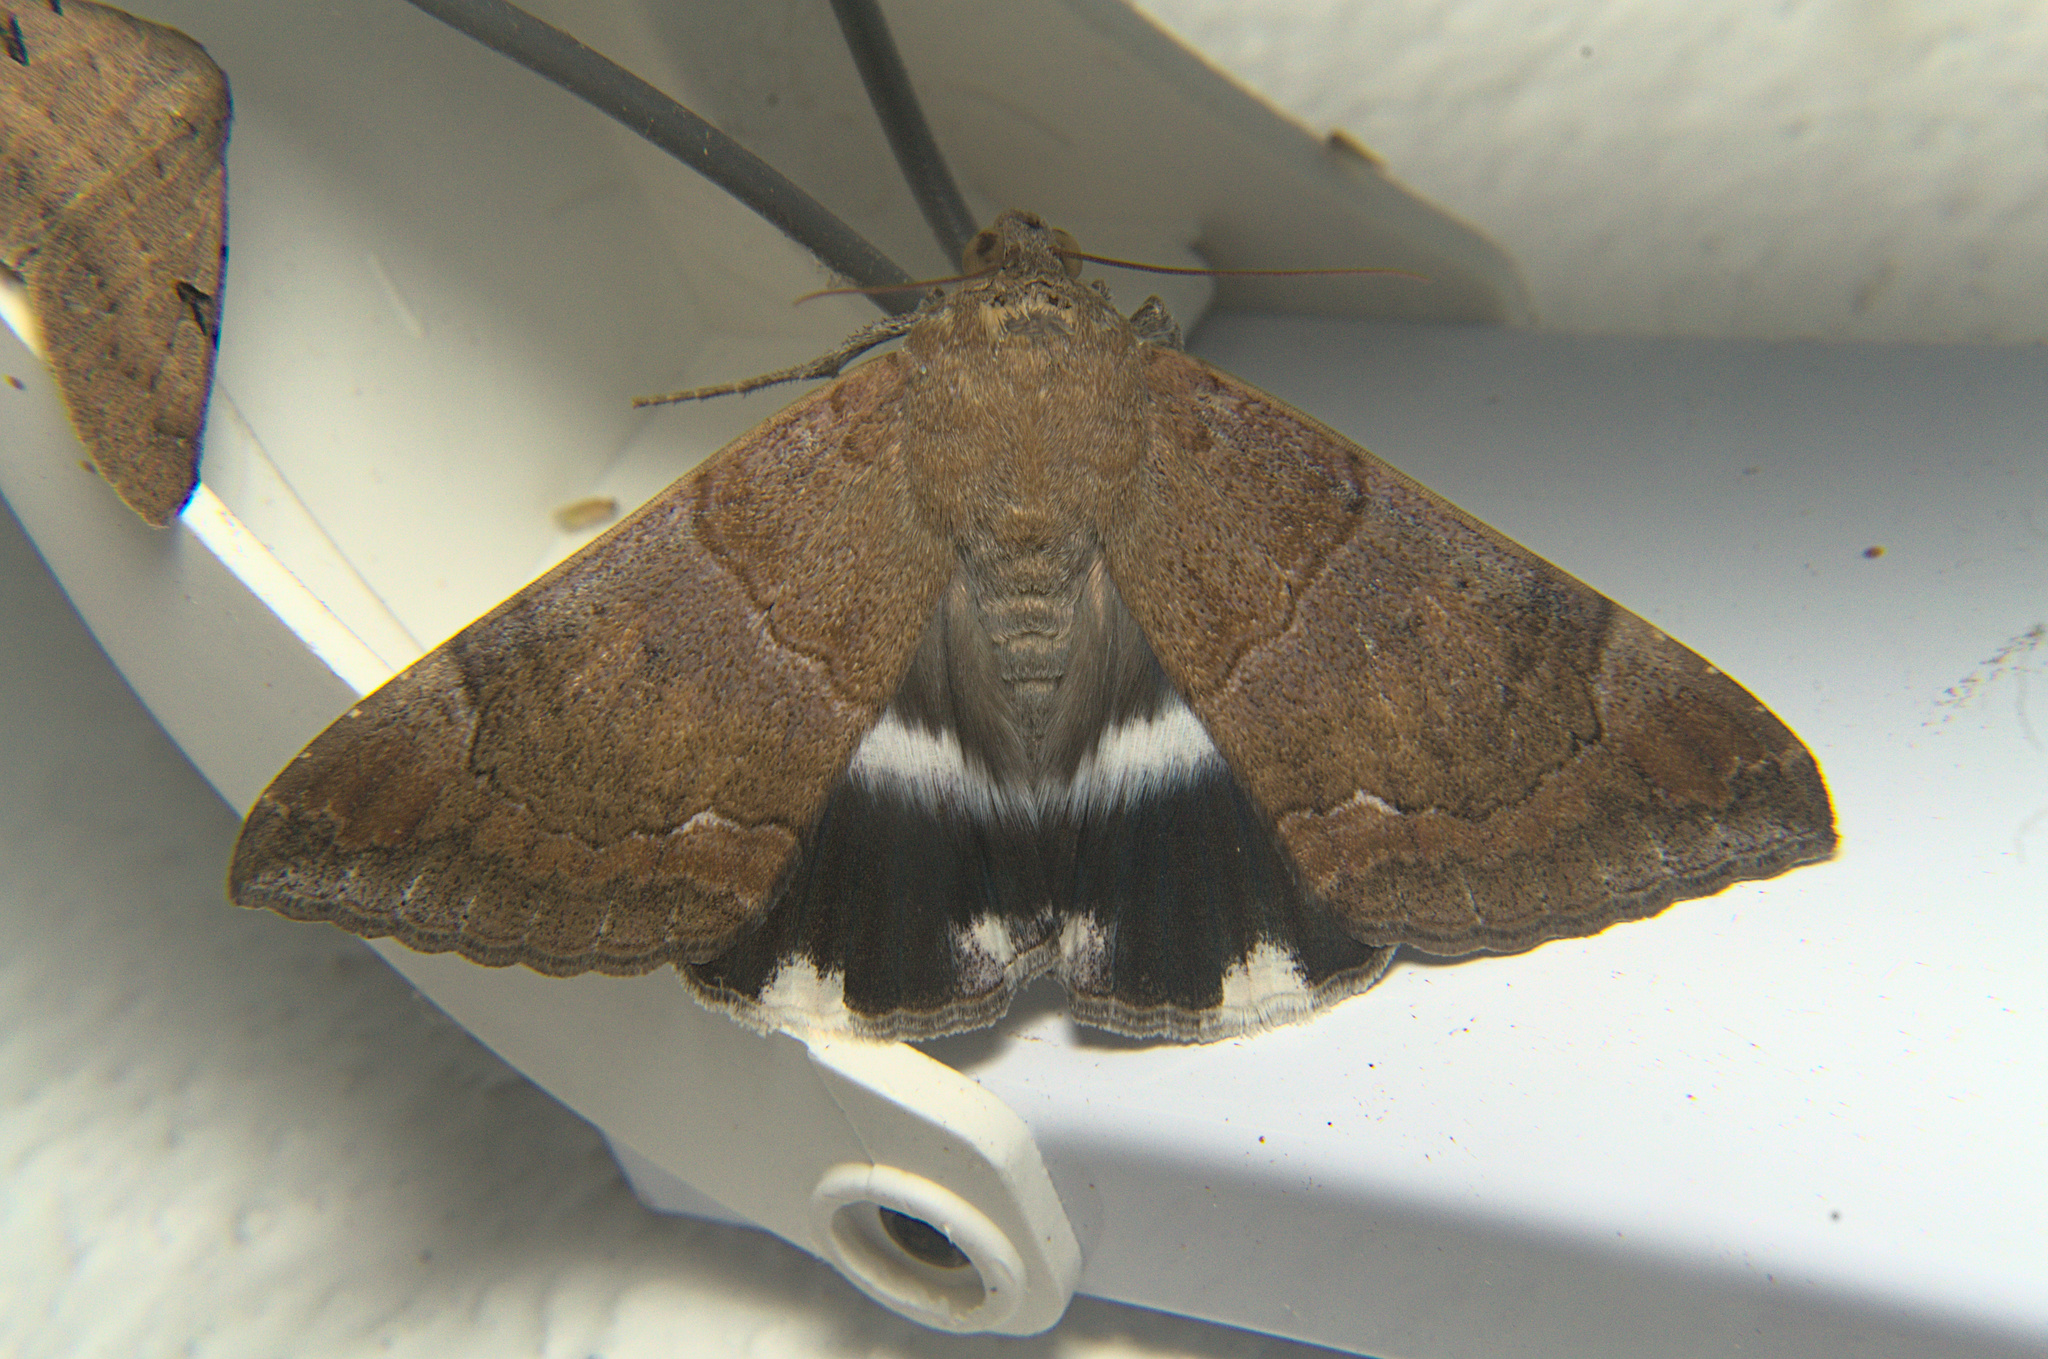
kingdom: Animalia
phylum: Arthropoda
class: Insecta
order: Lepidoptera
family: Erebidae
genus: Achaea
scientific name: Achaea janata
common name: Croton caterpillar
